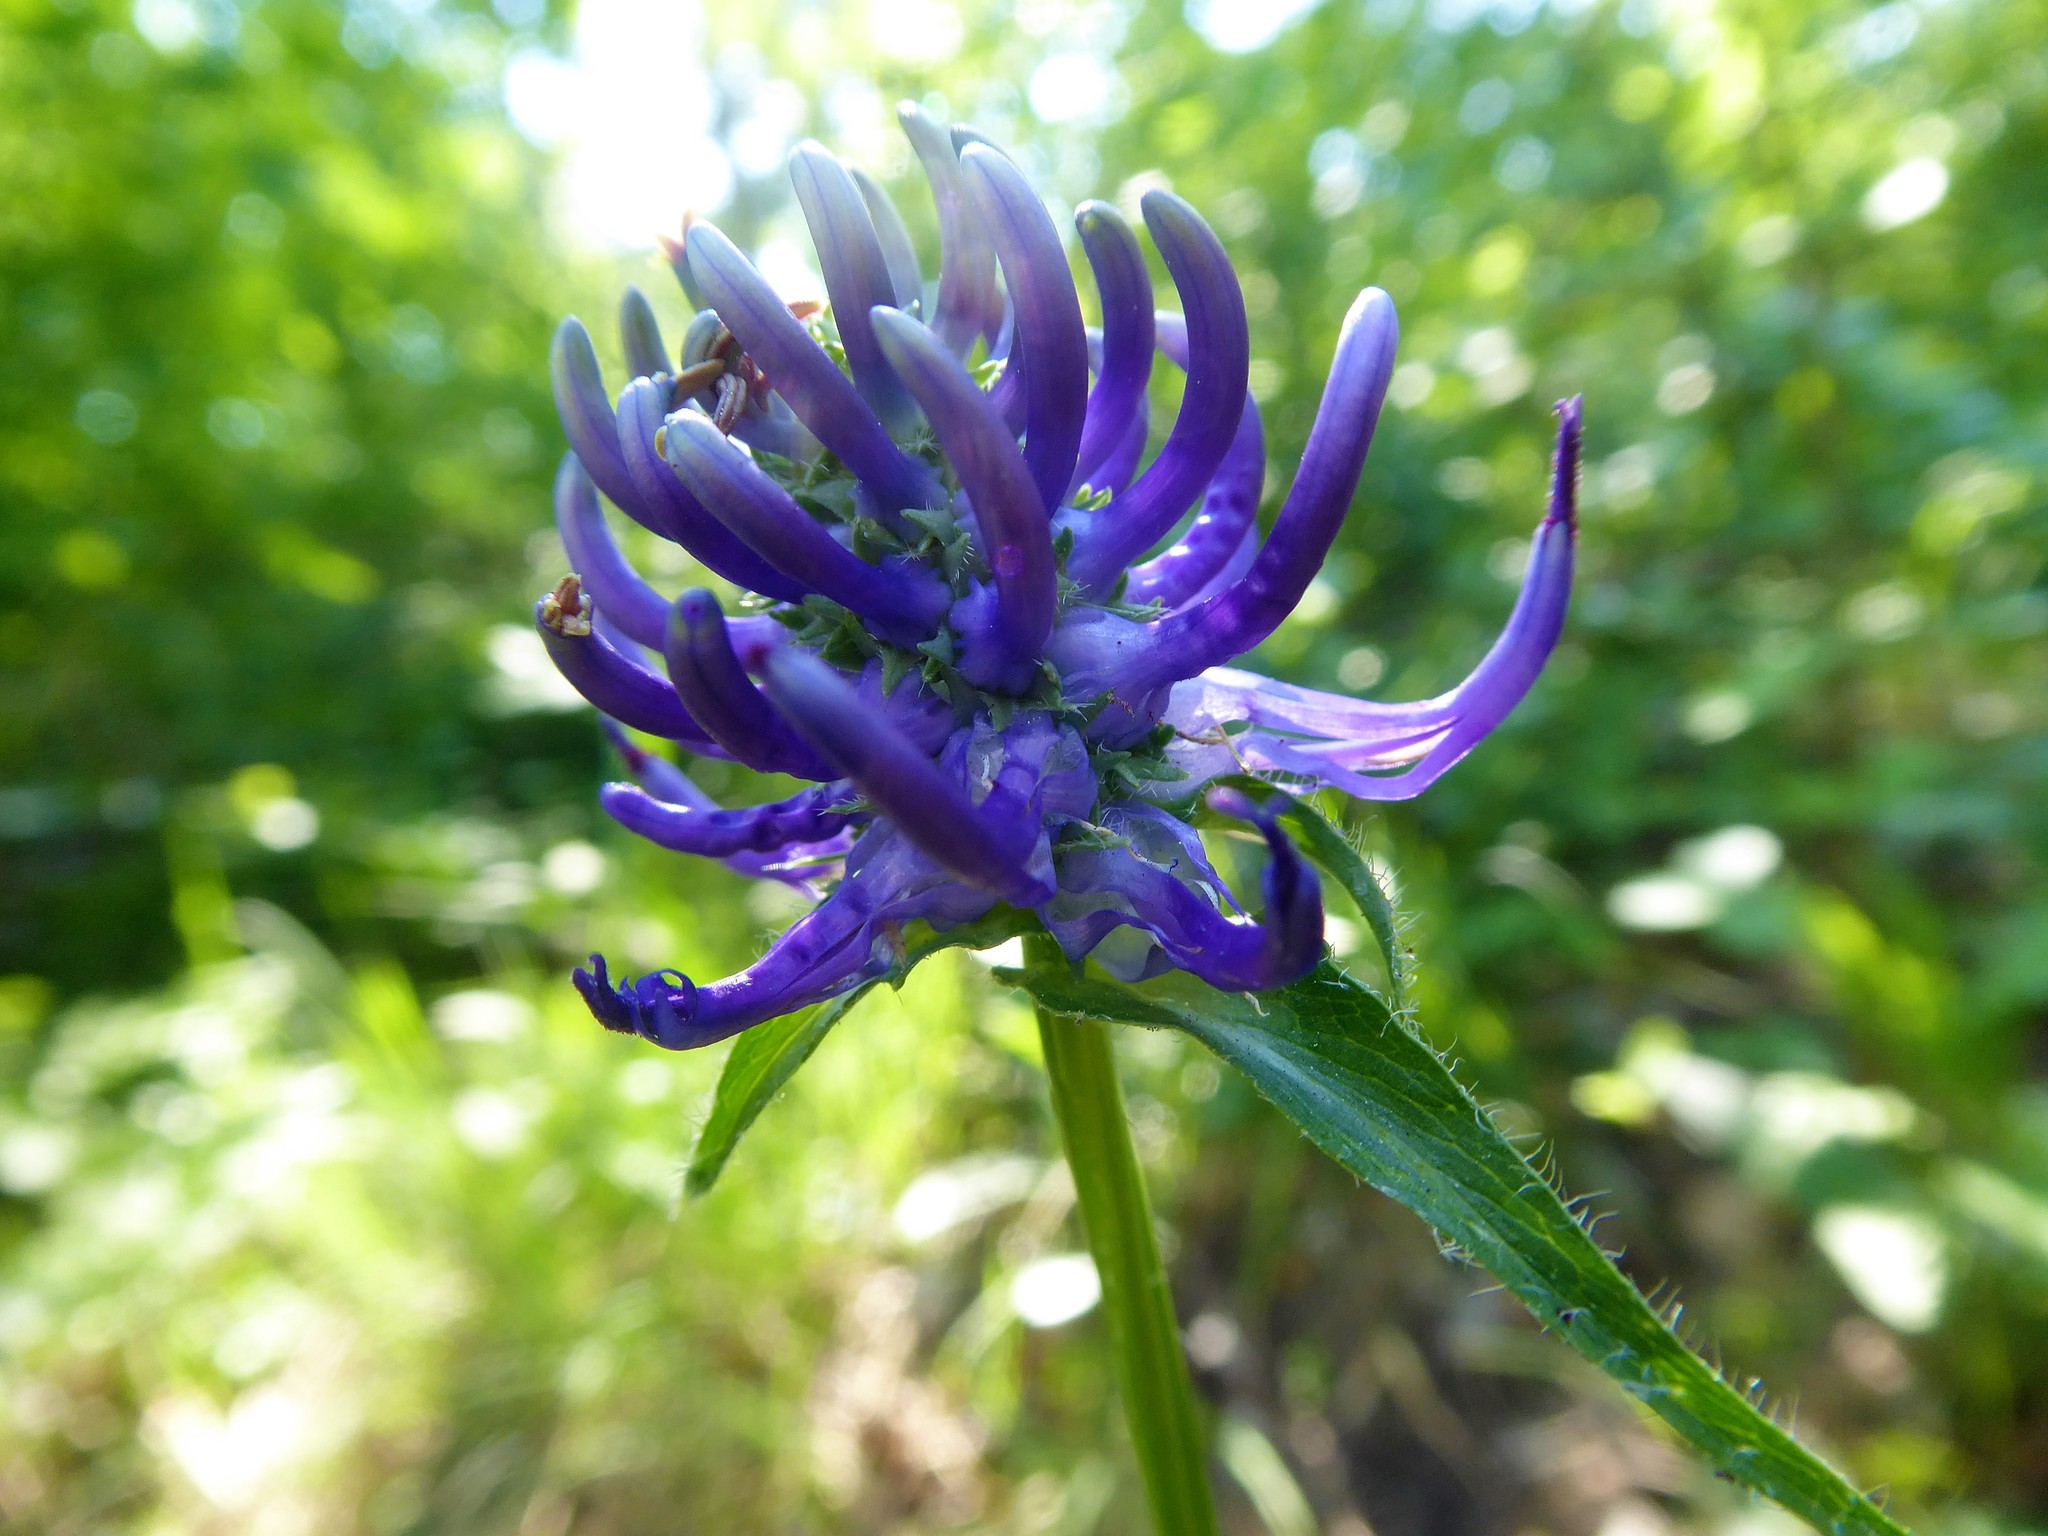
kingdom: Plantae
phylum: Tracheophyta
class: Magnoliopsida
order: Asterales
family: Campanulaceae
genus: Phyteuma
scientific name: Phyteuma orbiculare
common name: Round-headed rampion
